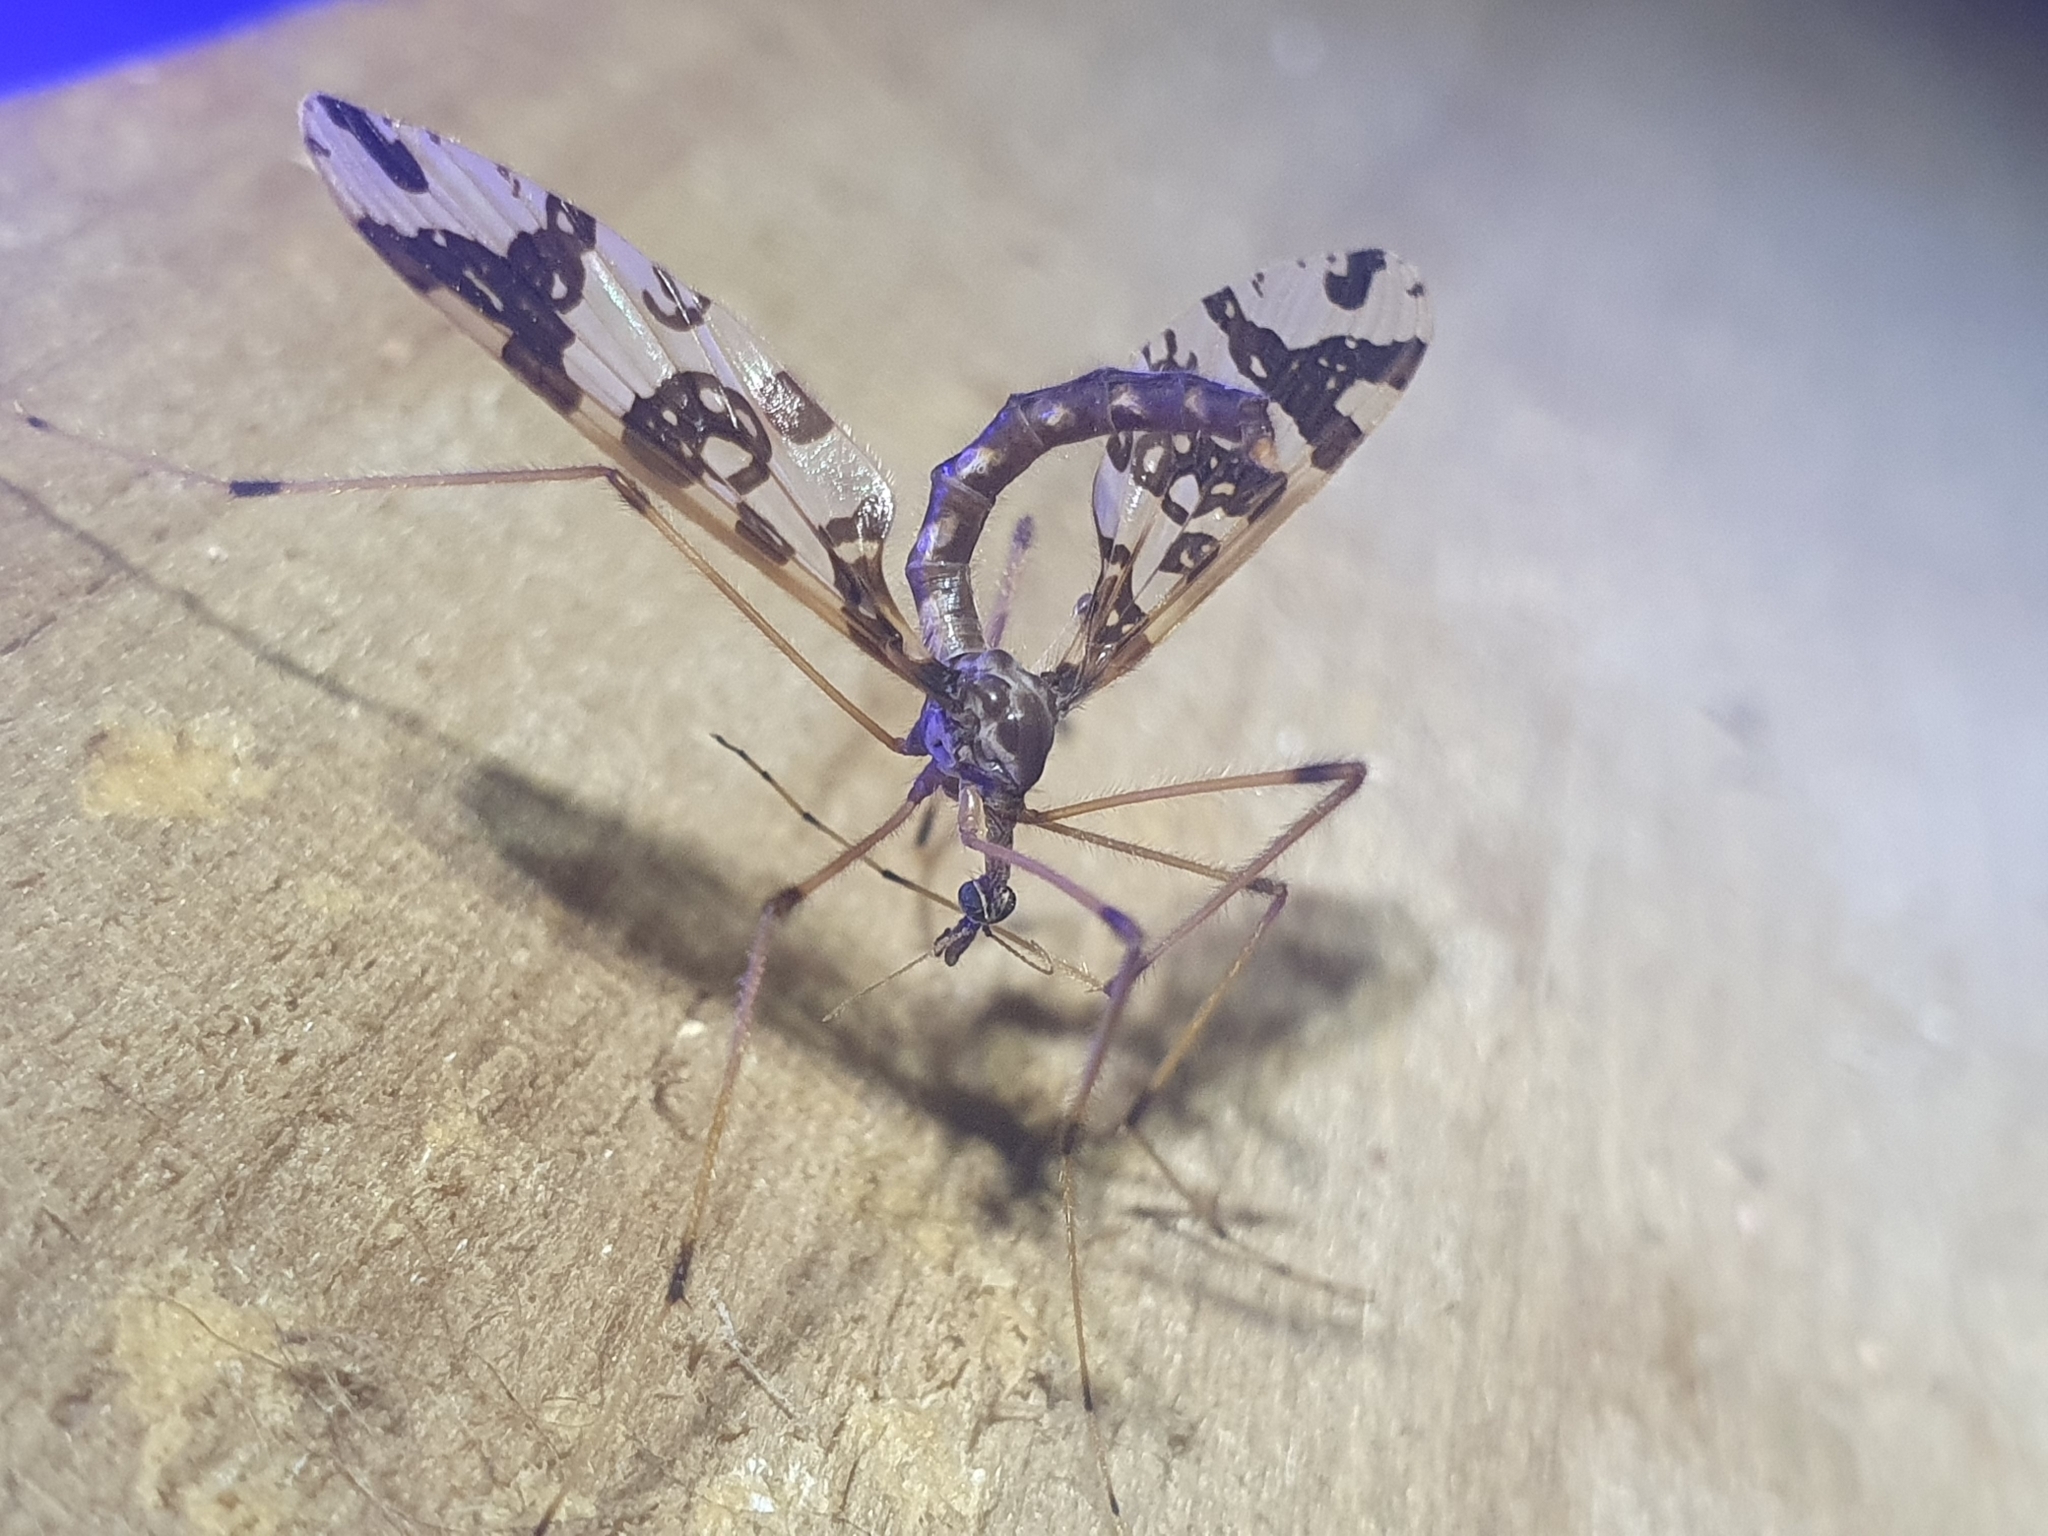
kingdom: Animalia
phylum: Arthropoda
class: Insecta
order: Diptera
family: Tanyderidae
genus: Tanyderus
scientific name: Tanyderus annuliferus
